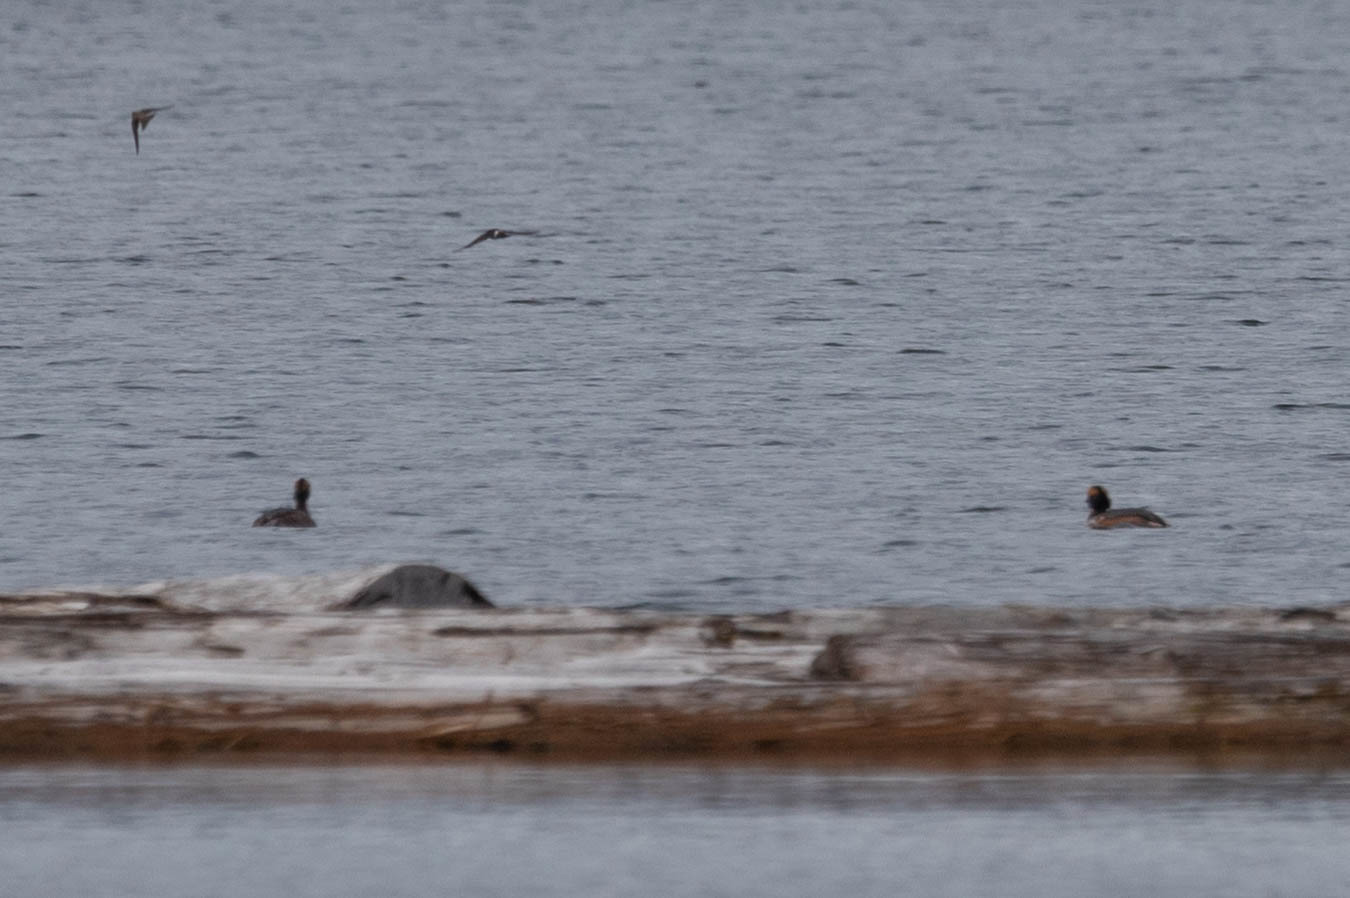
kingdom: Animalia
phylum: Chordata
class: Aves
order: Podicipediformes
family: Podicipedidae
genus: Podiceps
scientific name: Podiceps auritus
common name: Horned grebe
